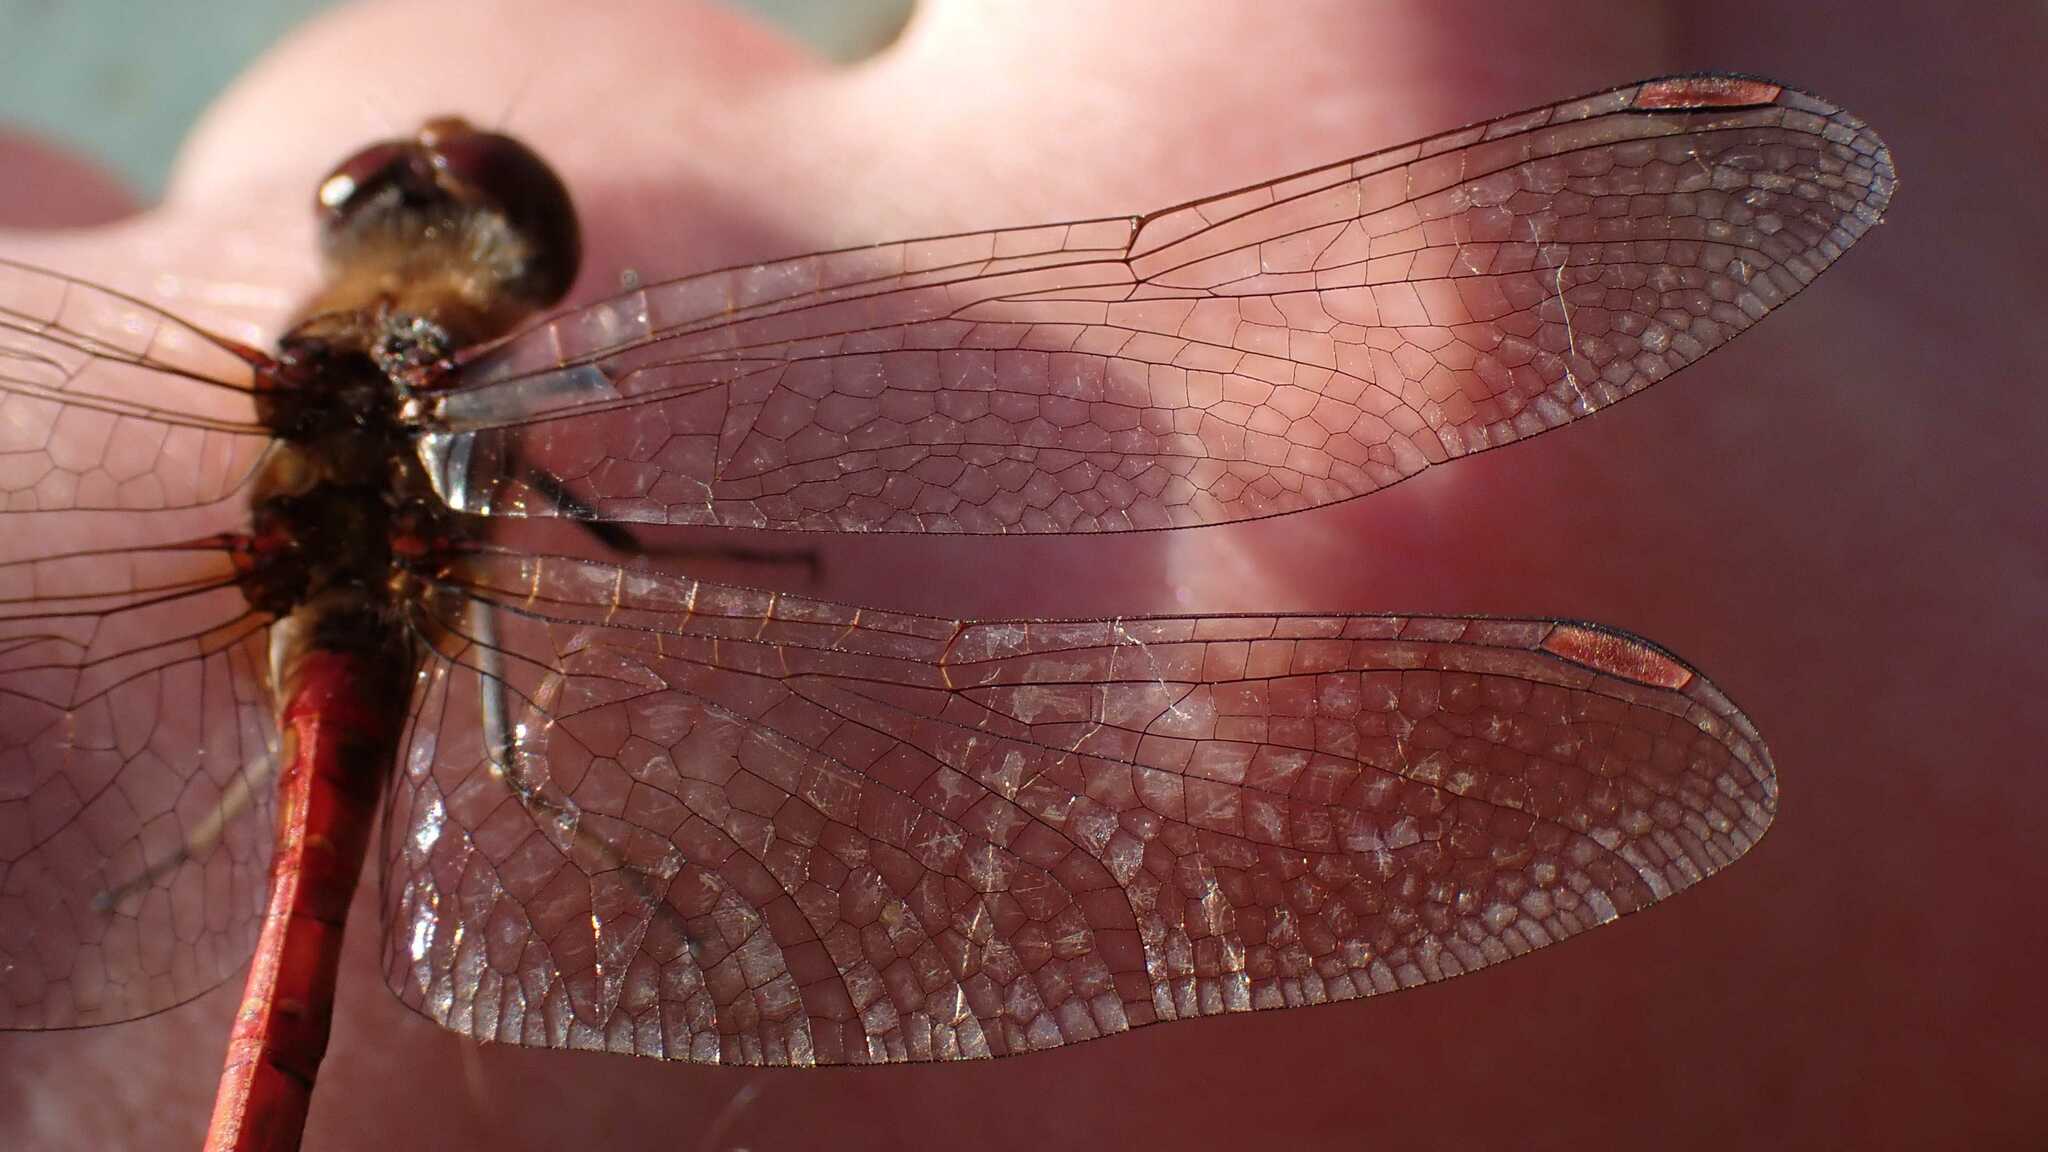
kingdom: Animalia
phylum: Arthropoda
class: Insecta
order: Odonata
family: Libellulidae
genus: Sympetrum
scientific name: Sympetrum striolatum
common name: Common darter
